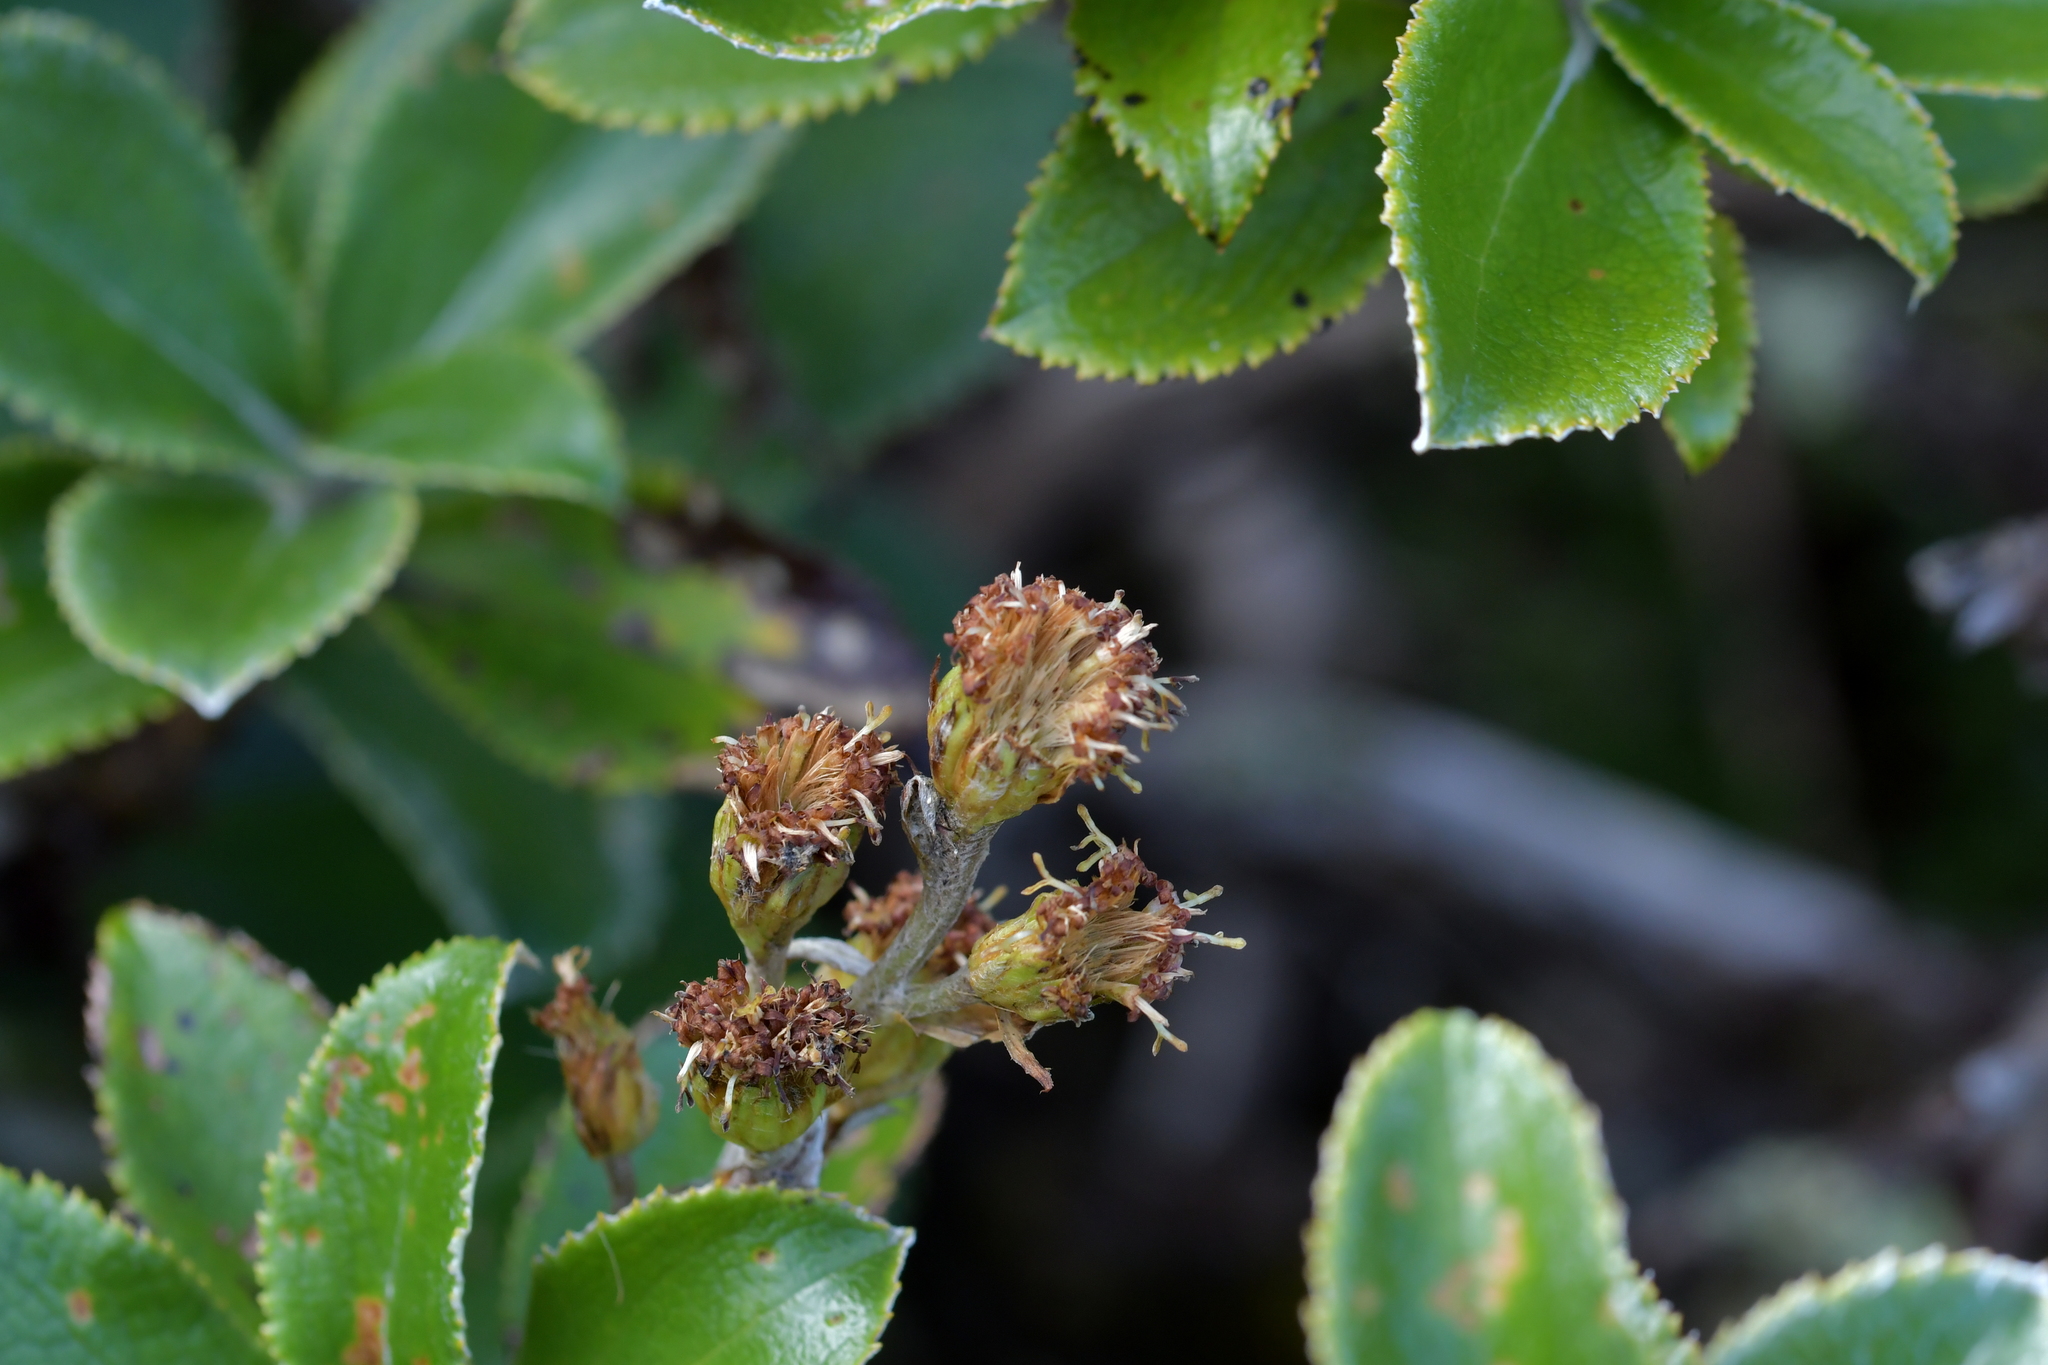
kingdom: Plantae
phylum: Tracheophyta
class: Magnoliopsida
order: Asterales
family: Asteraceae
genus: Macrolearia
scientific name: Macrolearia colensoi
